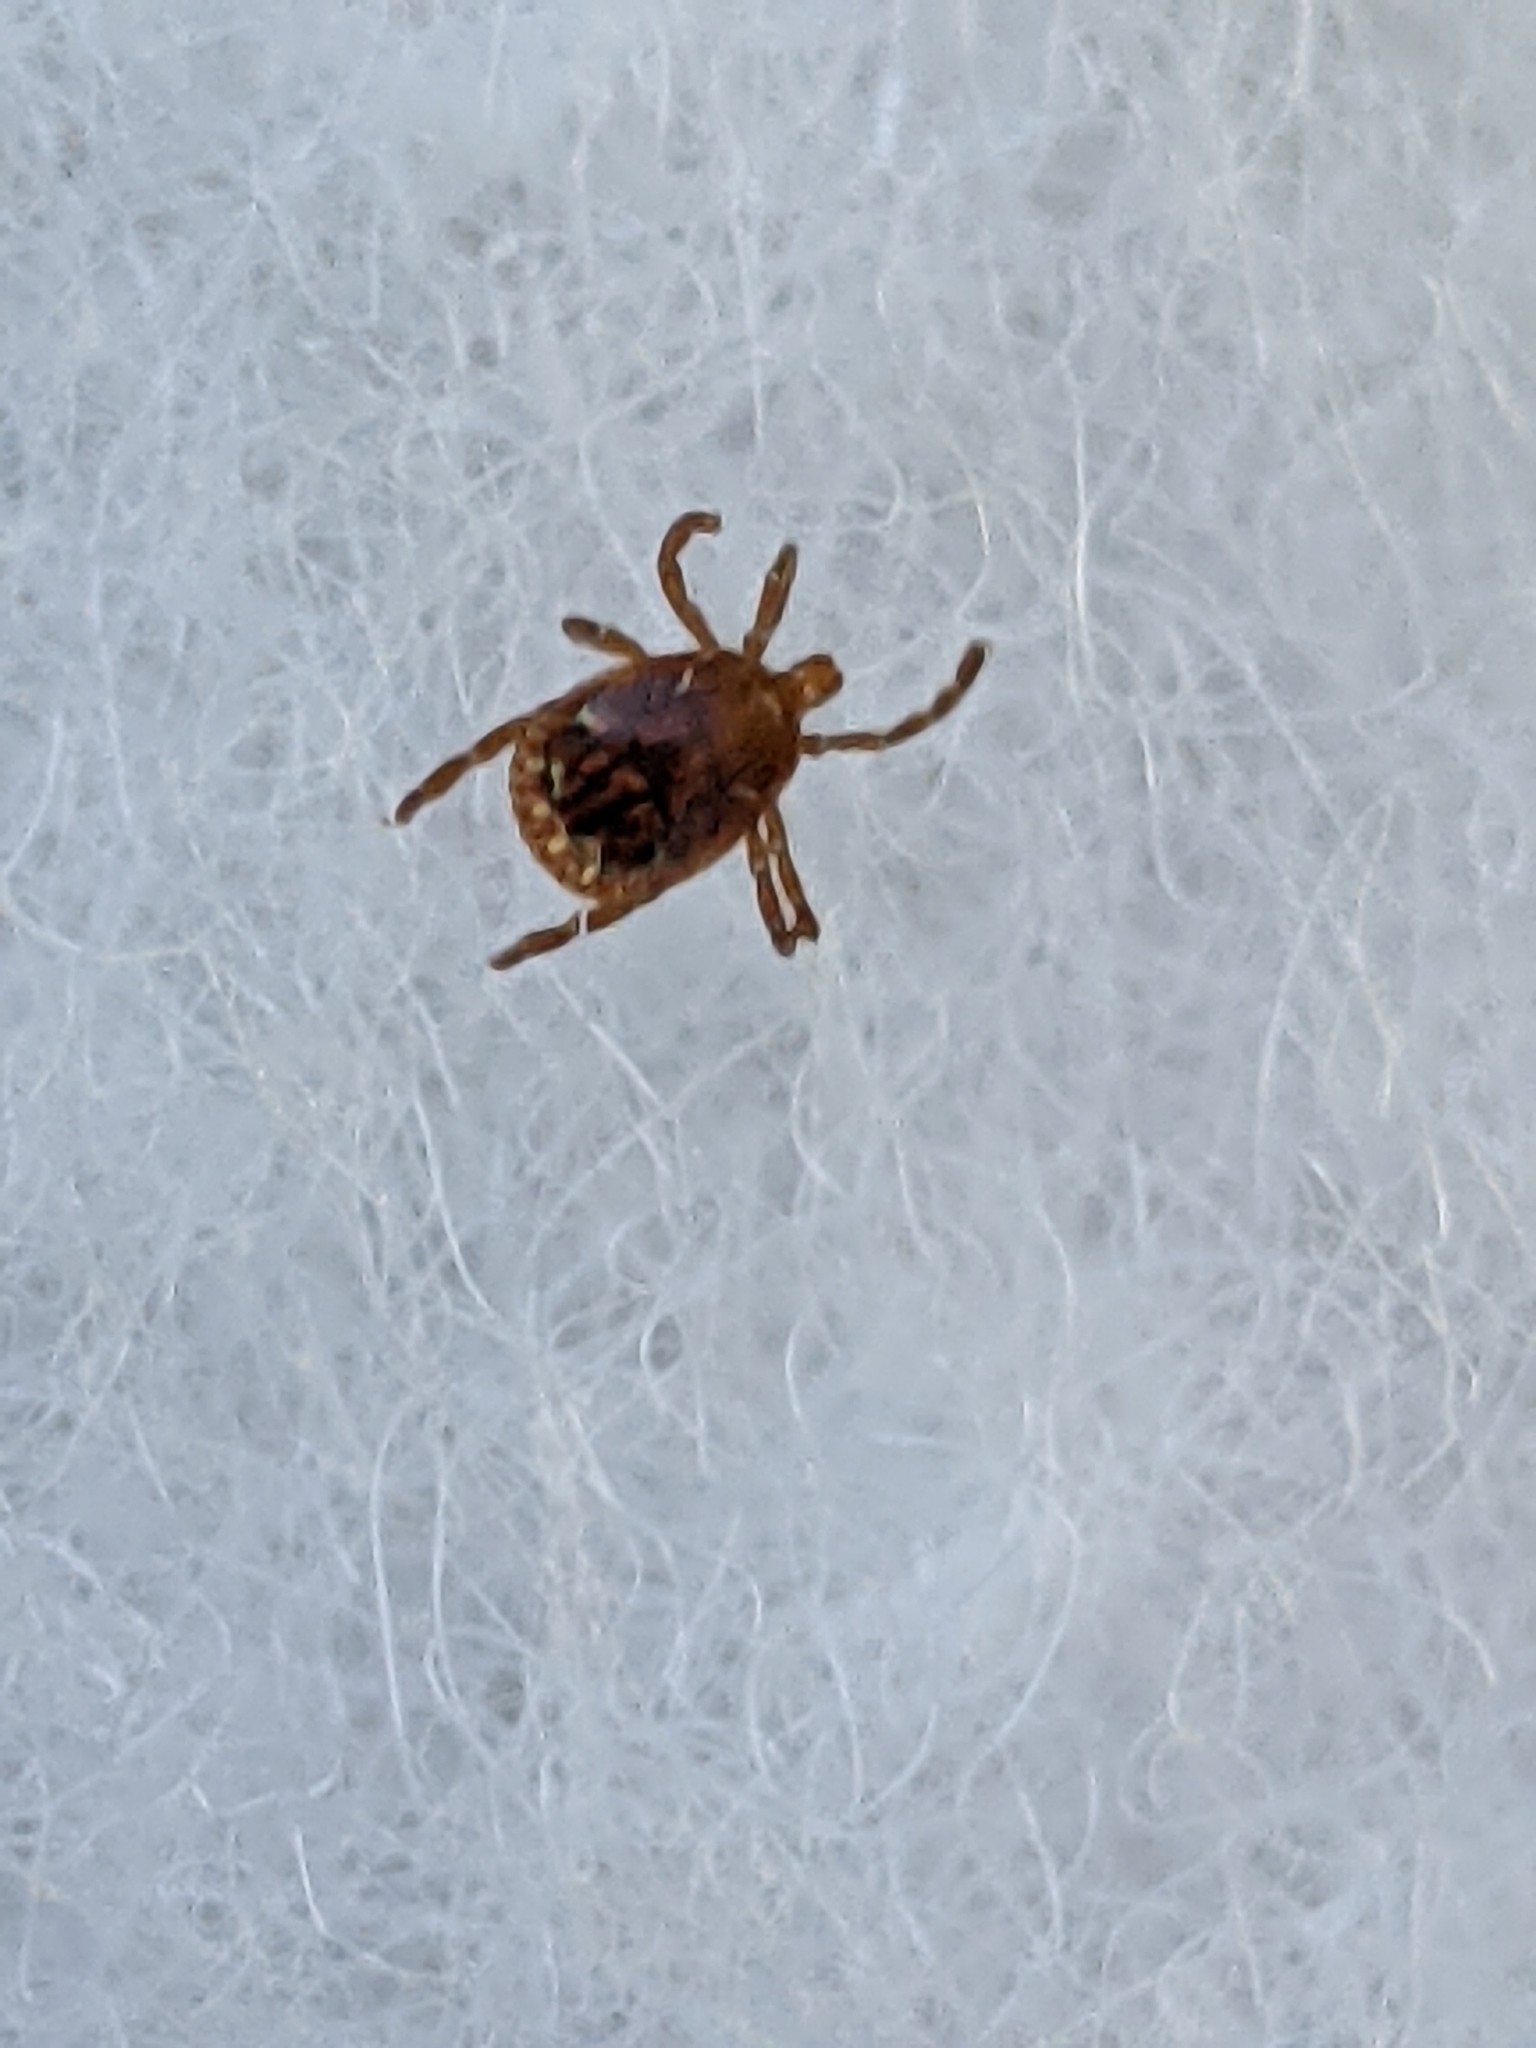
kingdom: Animalia
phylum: Arthropoda
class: Arachnida
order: Ixodida
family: Ixodidae
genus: Amblyomma
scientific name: Amblyomma americanum
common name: Lone star tick
